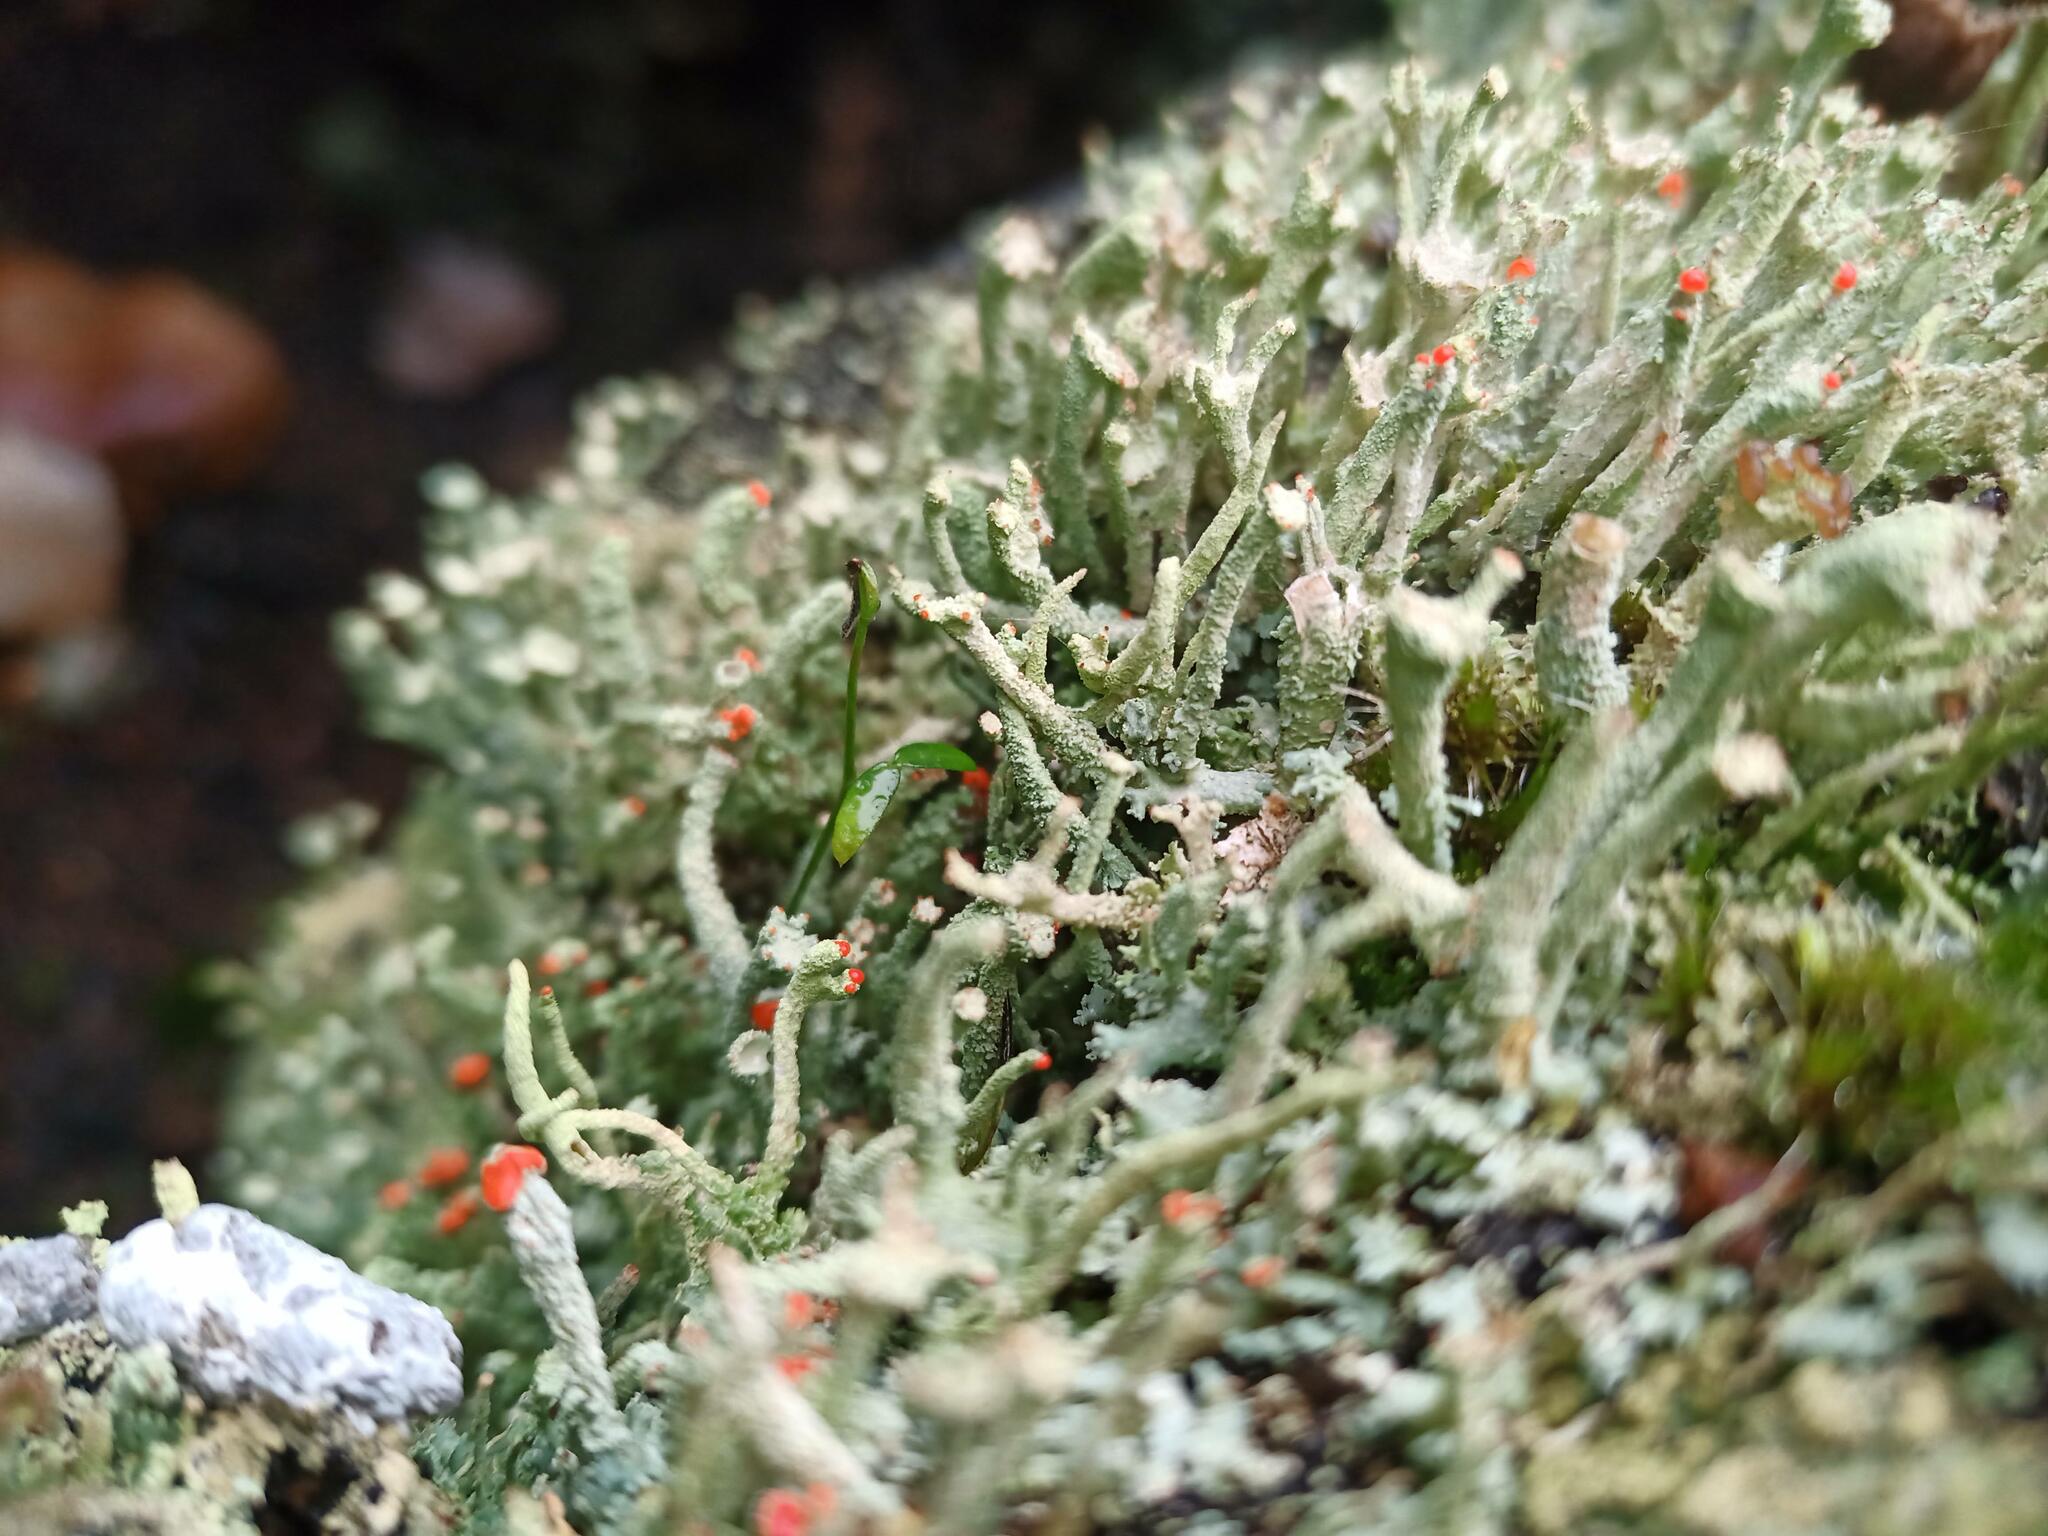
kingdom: Fungi
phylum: Ascomycota
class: Lecanoromycetes
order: Lecanorales
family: Cladoniaceae
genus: Cladonia
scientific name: Cladonia polydactyla
